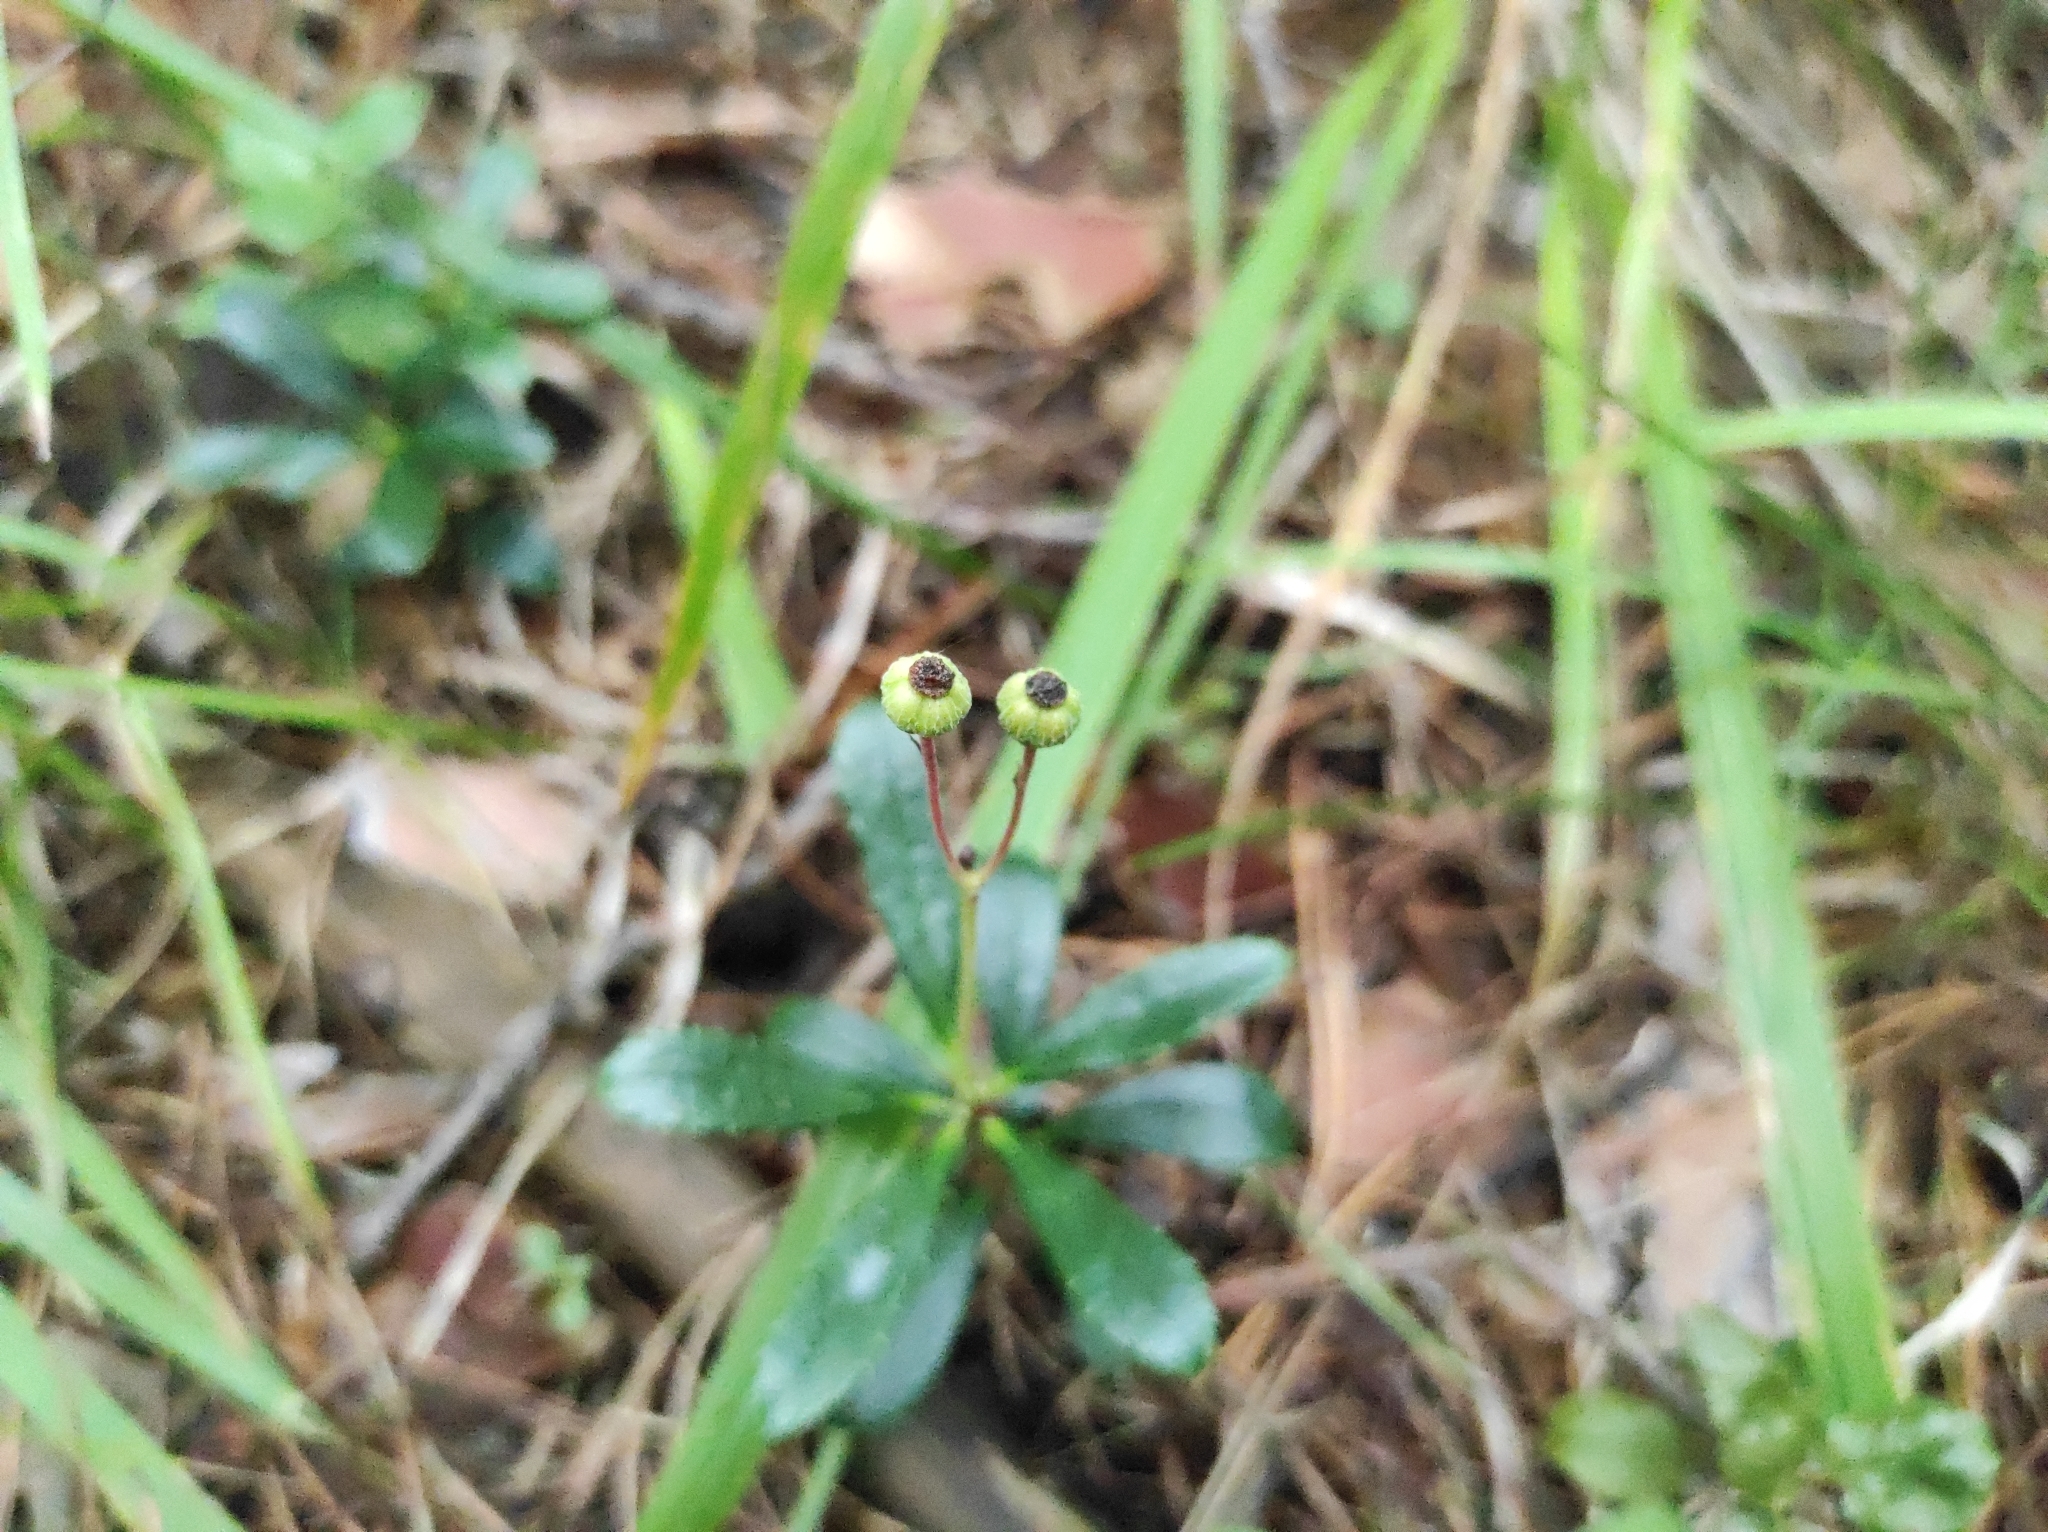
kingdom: Plantae
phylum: Tracheophyta
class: Magnoliopsida
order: Ericales
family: Ericaceae
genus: Chimaphila
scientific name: Chimaphila umbellata
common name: Pipsissewa
